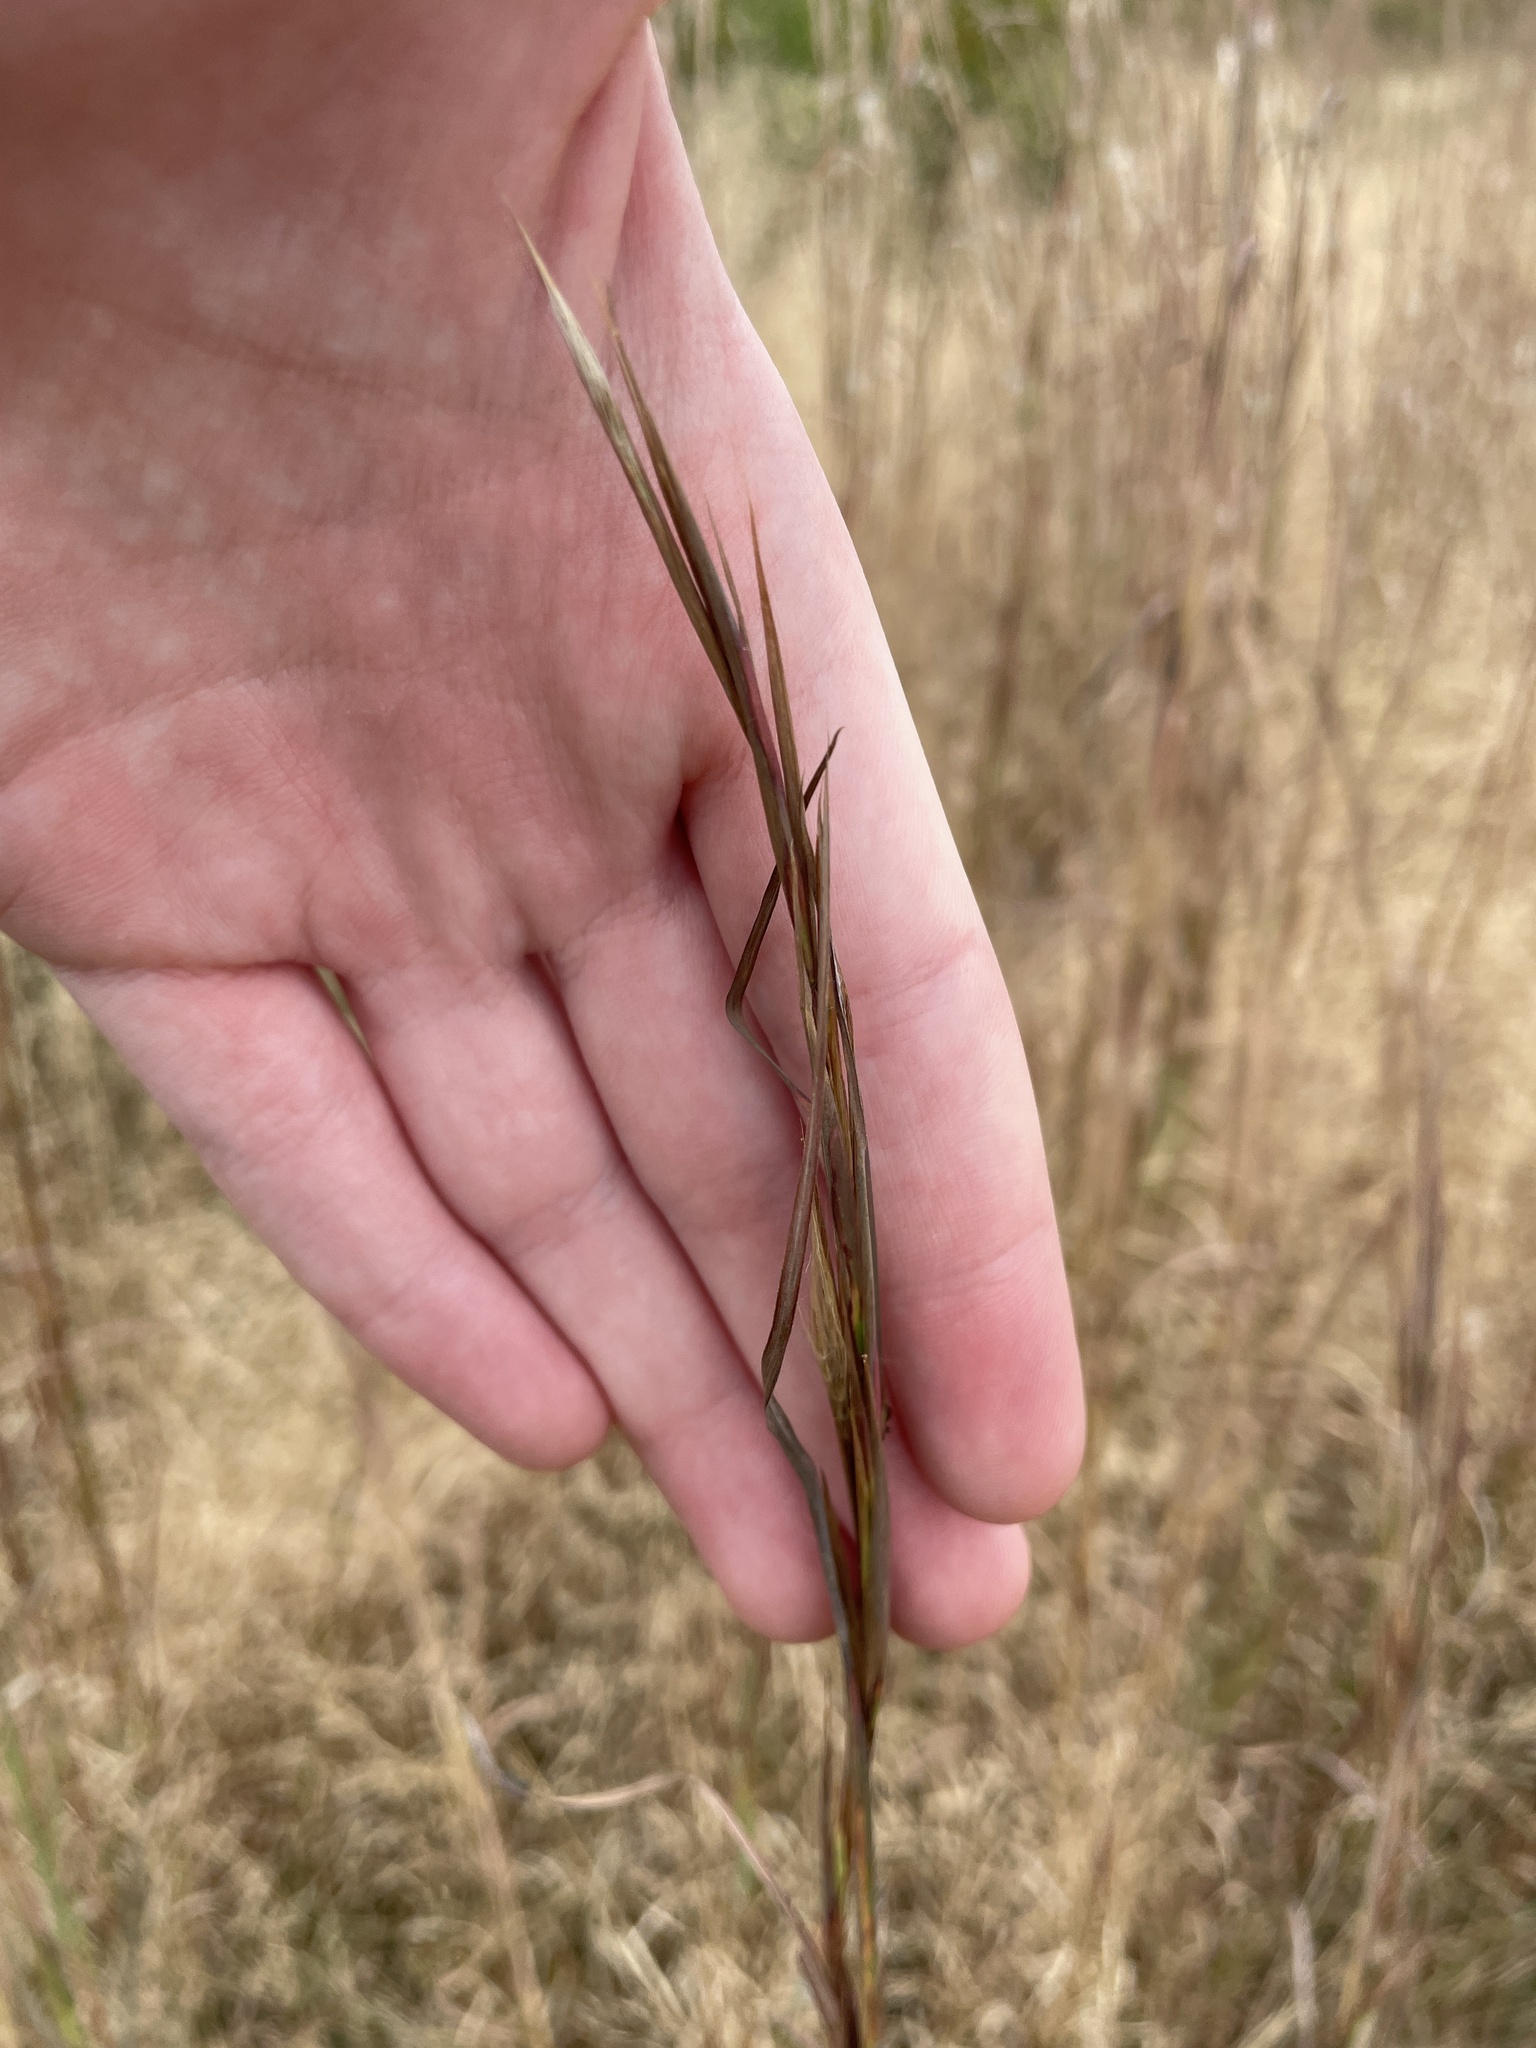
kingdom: Plantae
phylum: Tracheophyta
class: Liliopsida
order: Poales
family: Poaceae
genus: Andropogon
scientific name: Andropogon virginicus
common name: Broomsedge bluestem
